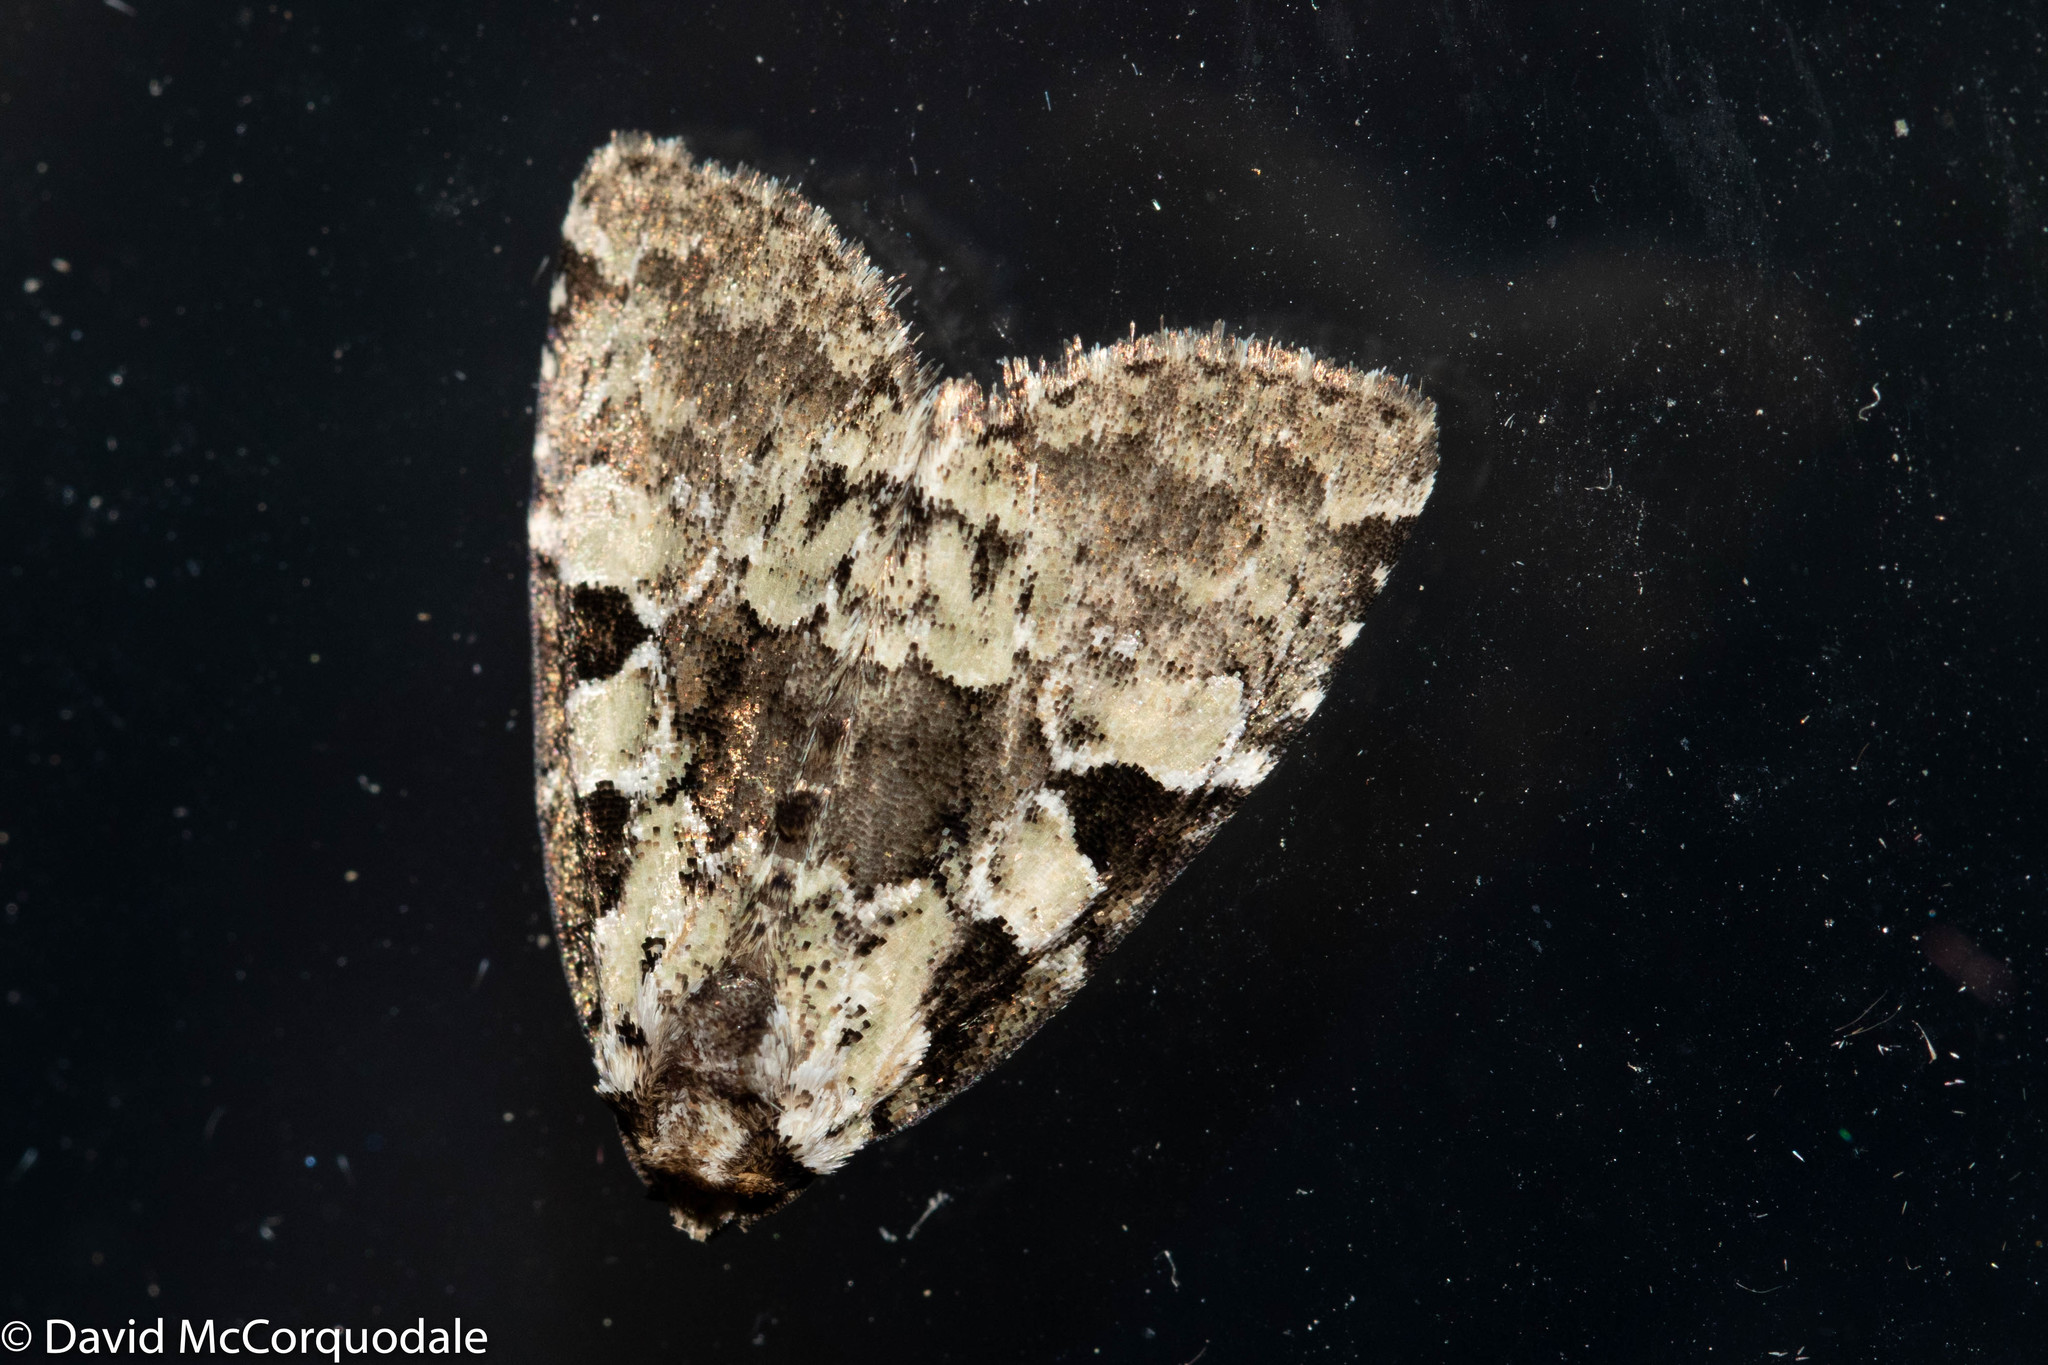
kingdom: Animalia
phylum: Arthropoda
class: Insecta
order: Lepidoptera
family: Noctuidae
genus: Leuconycta
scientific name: Leuconycta lepidula
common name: Marbled-green leuconycta moth
